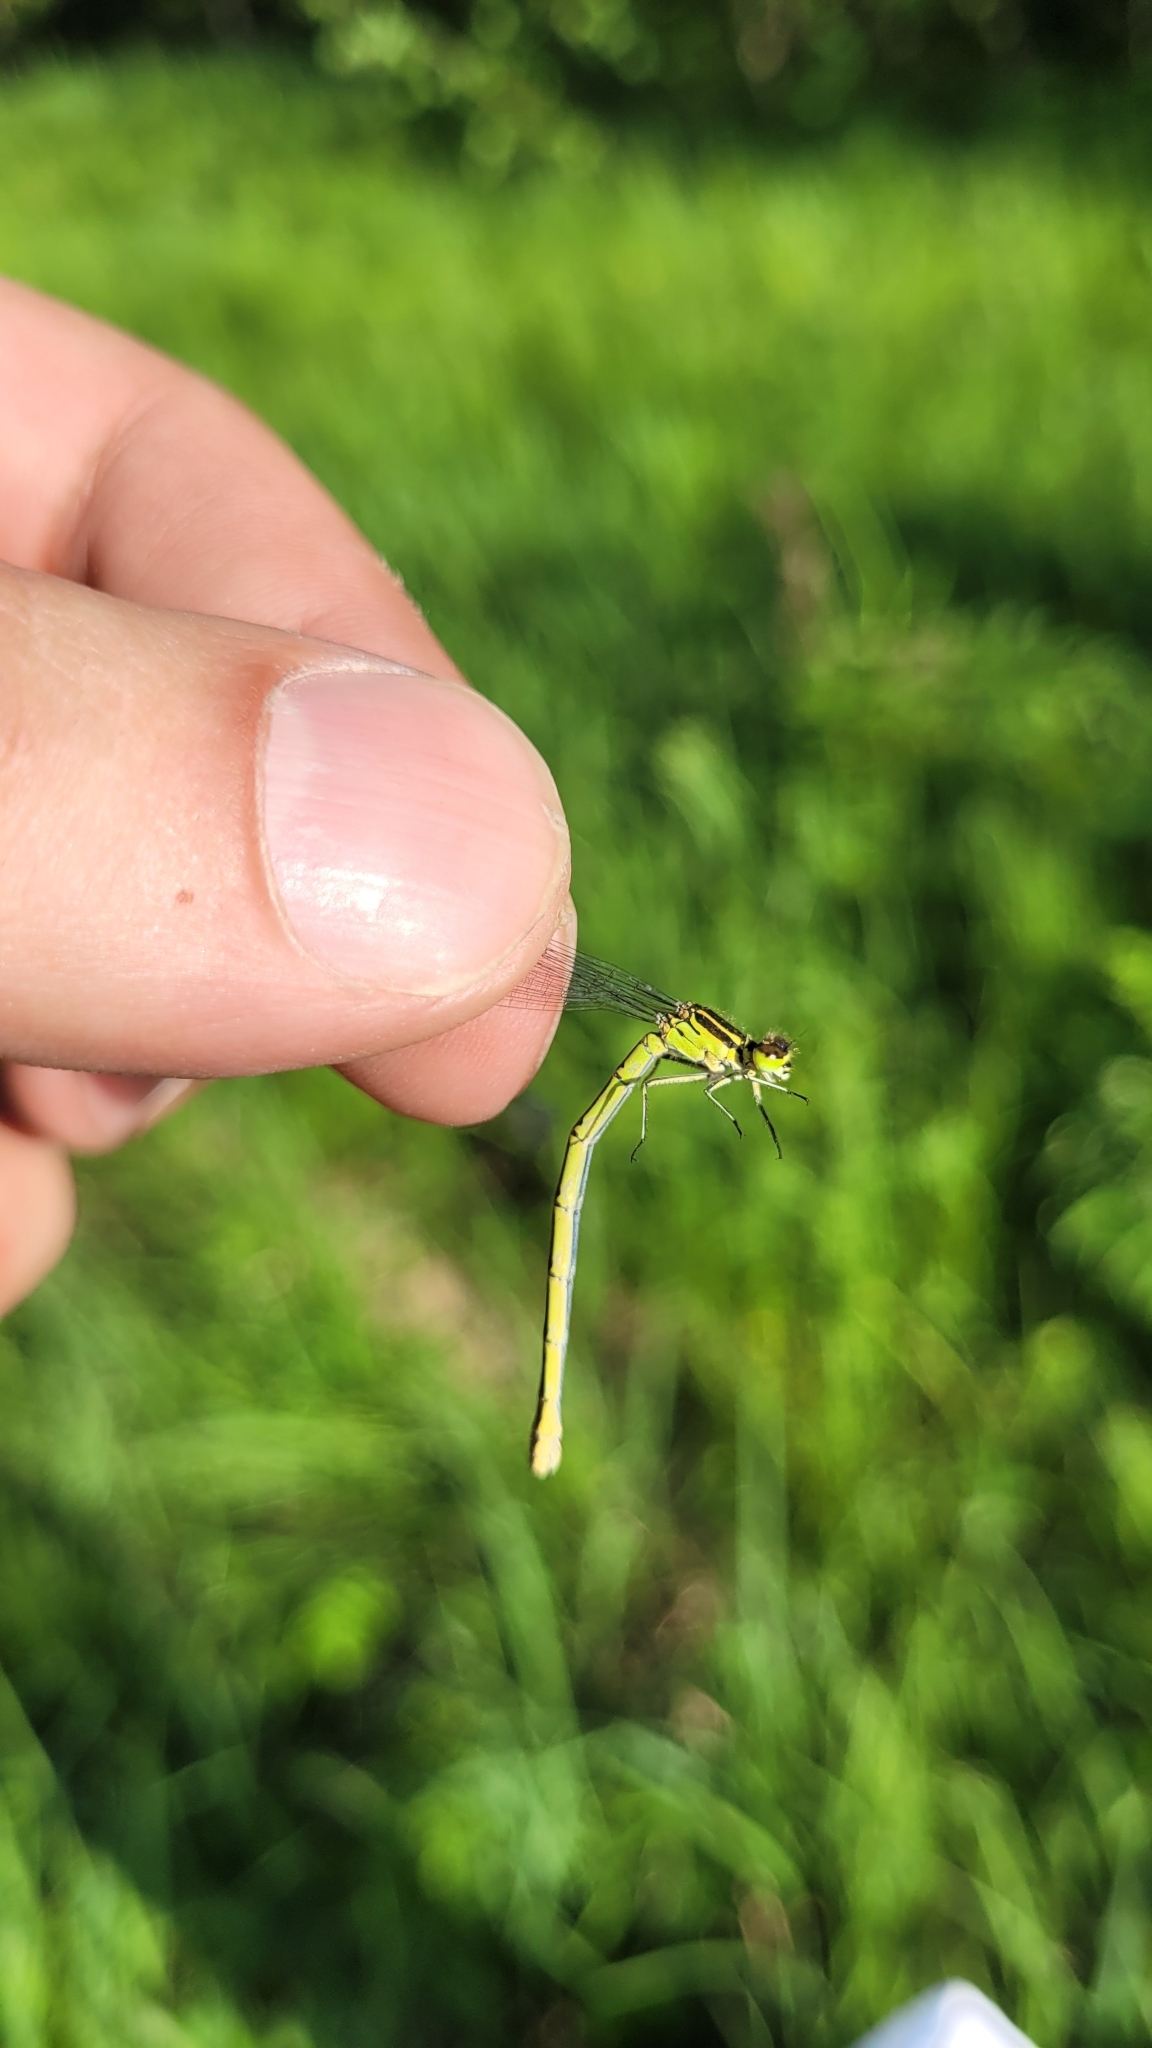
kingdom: Animalia
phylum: Arthropoda
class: Insecta
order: Odonata
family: Coenagrionidae
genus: Coenagrion
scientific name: Coenagrion hastulatum
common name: Spearhead bluet
